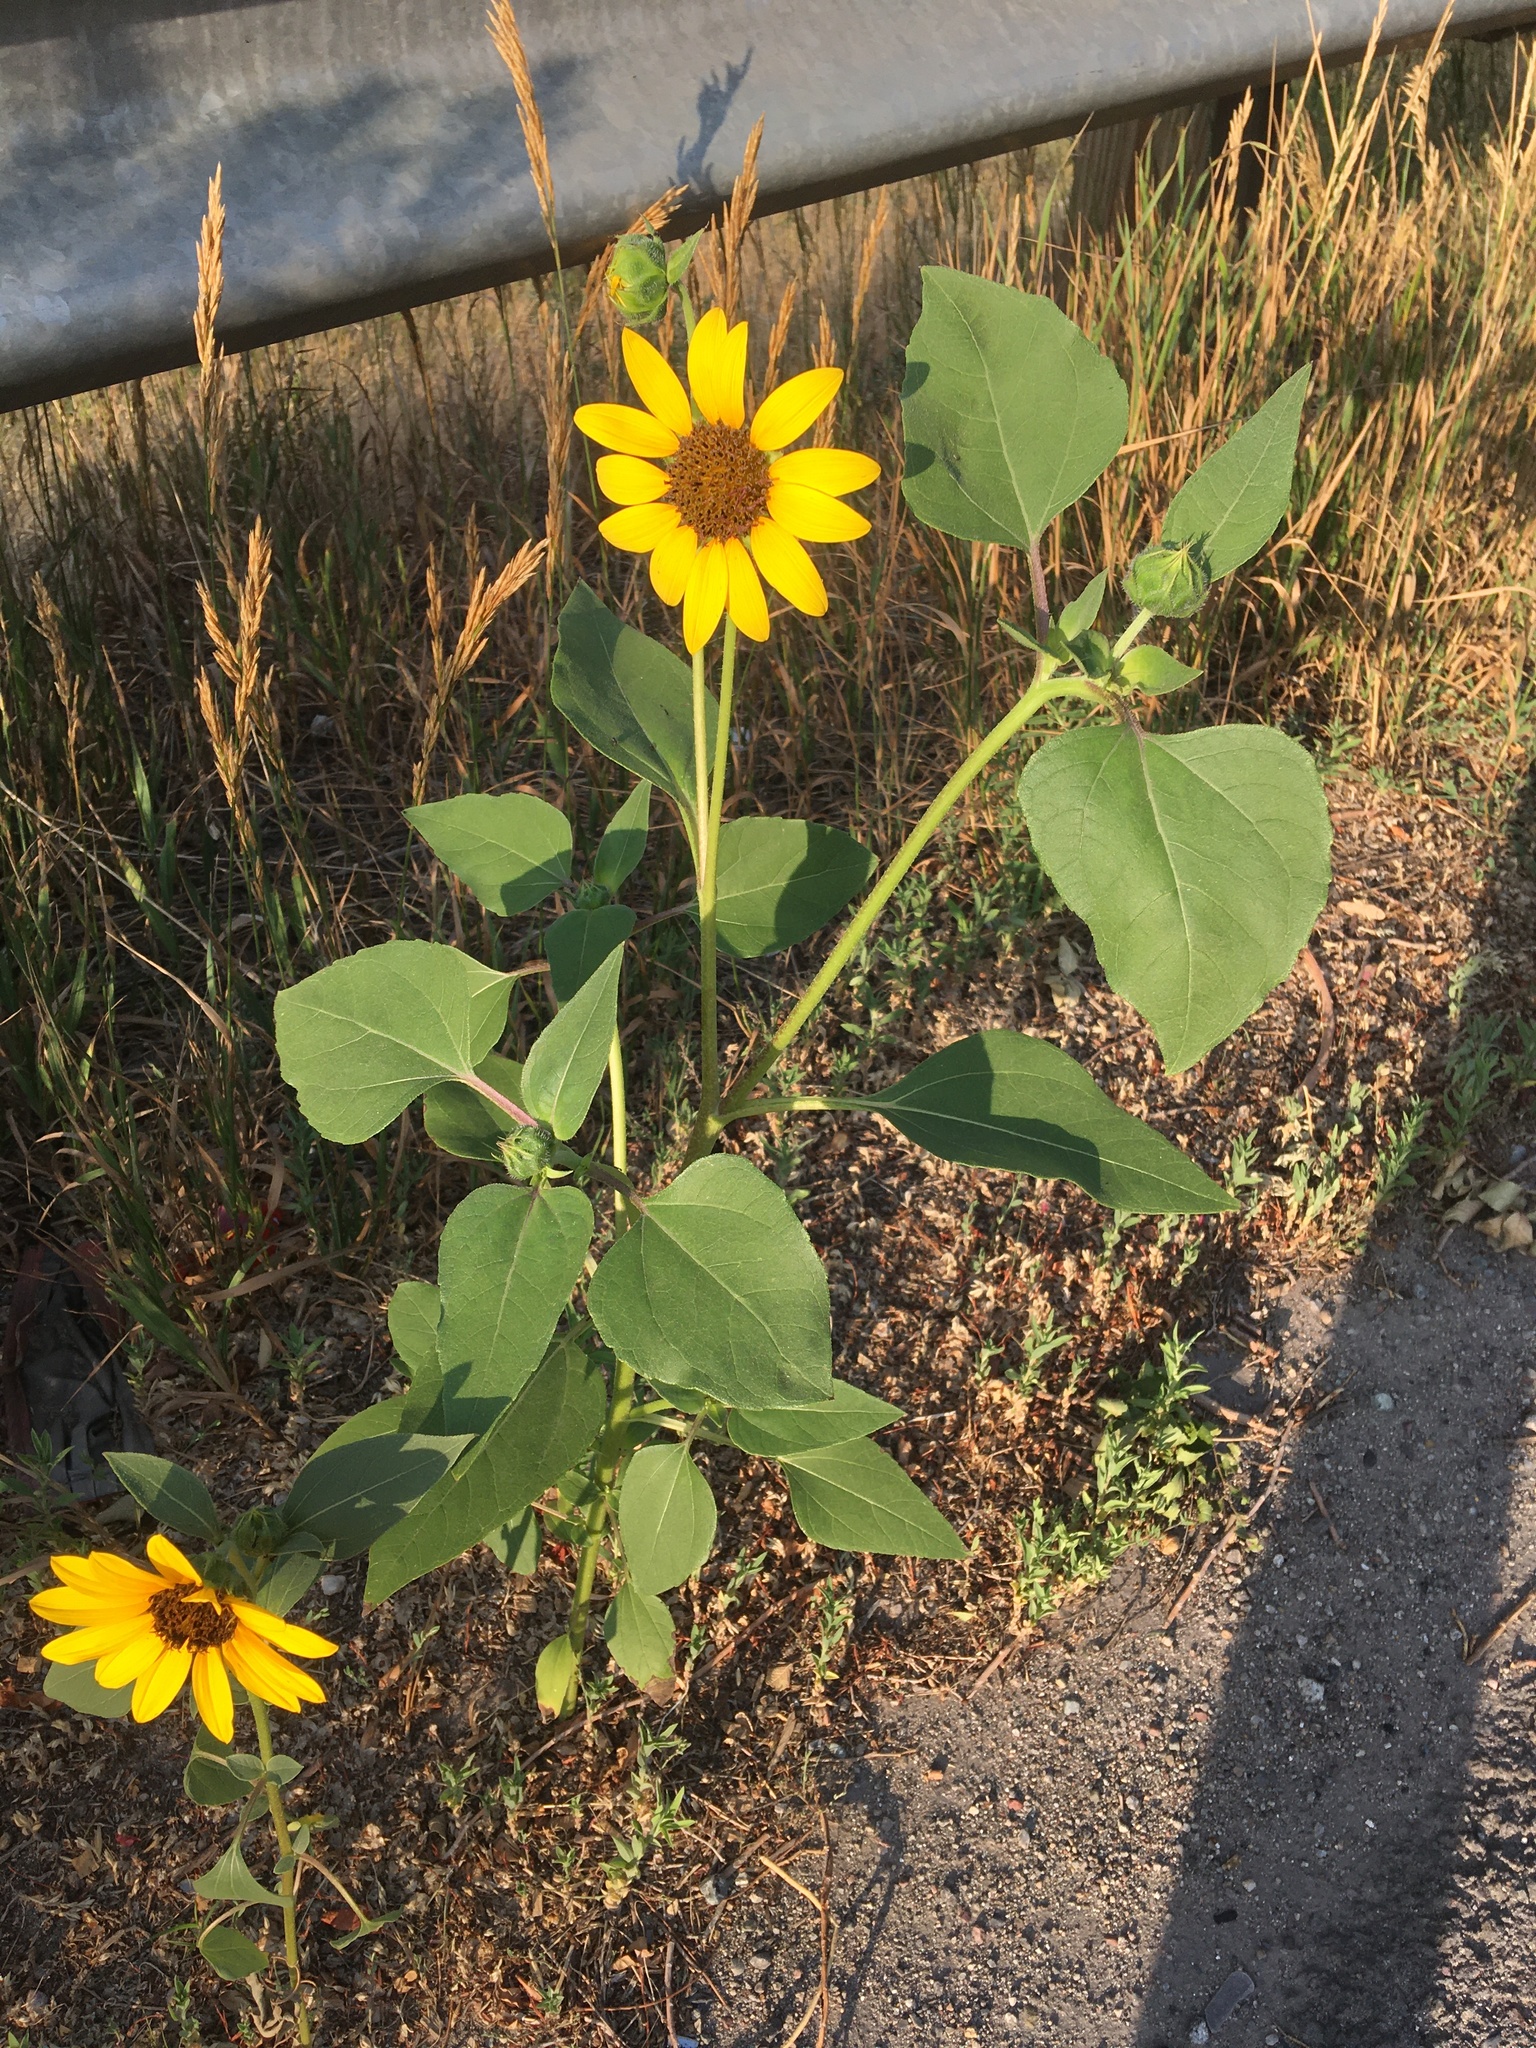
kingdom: Plantae
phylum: Tracheophyta
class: Magnoliopsida
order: Asterales
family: Asteraceae
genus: Helianthus
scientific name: Helianthus annuus
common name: Sunflower
